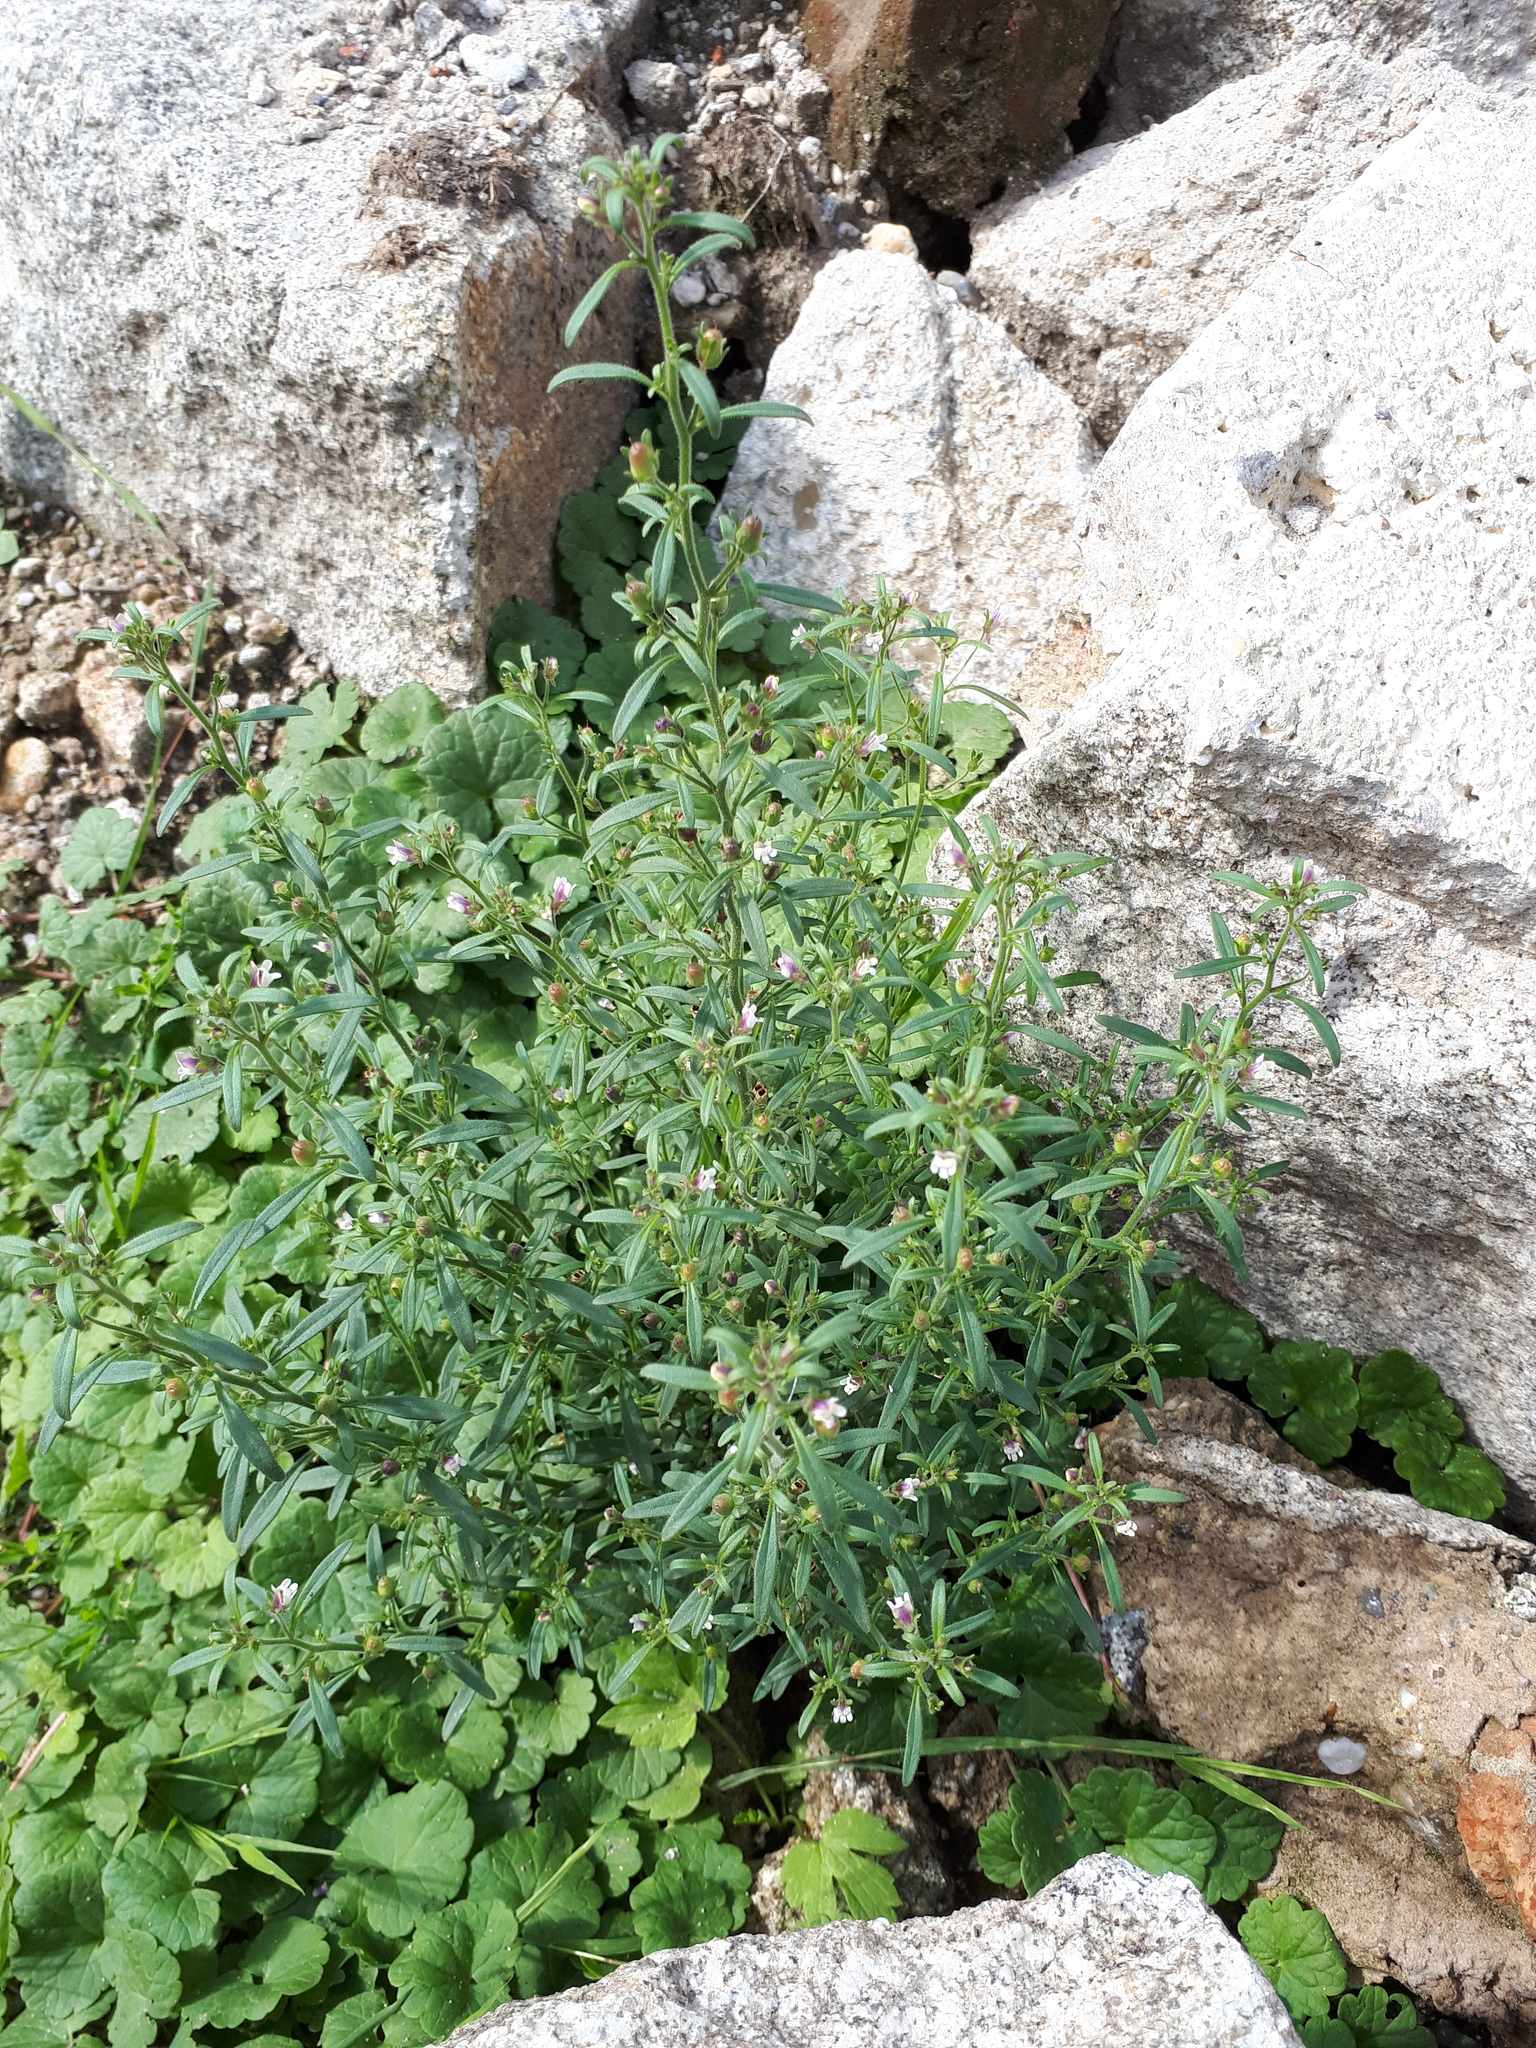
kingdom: Plantae
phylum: Tracheophyta
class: Magnoliopsida
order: Lamiales
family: Plantaginaceae
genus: Chaenorhinum
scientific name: Chaenorhinum minus
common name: Dwarf snapdragon
